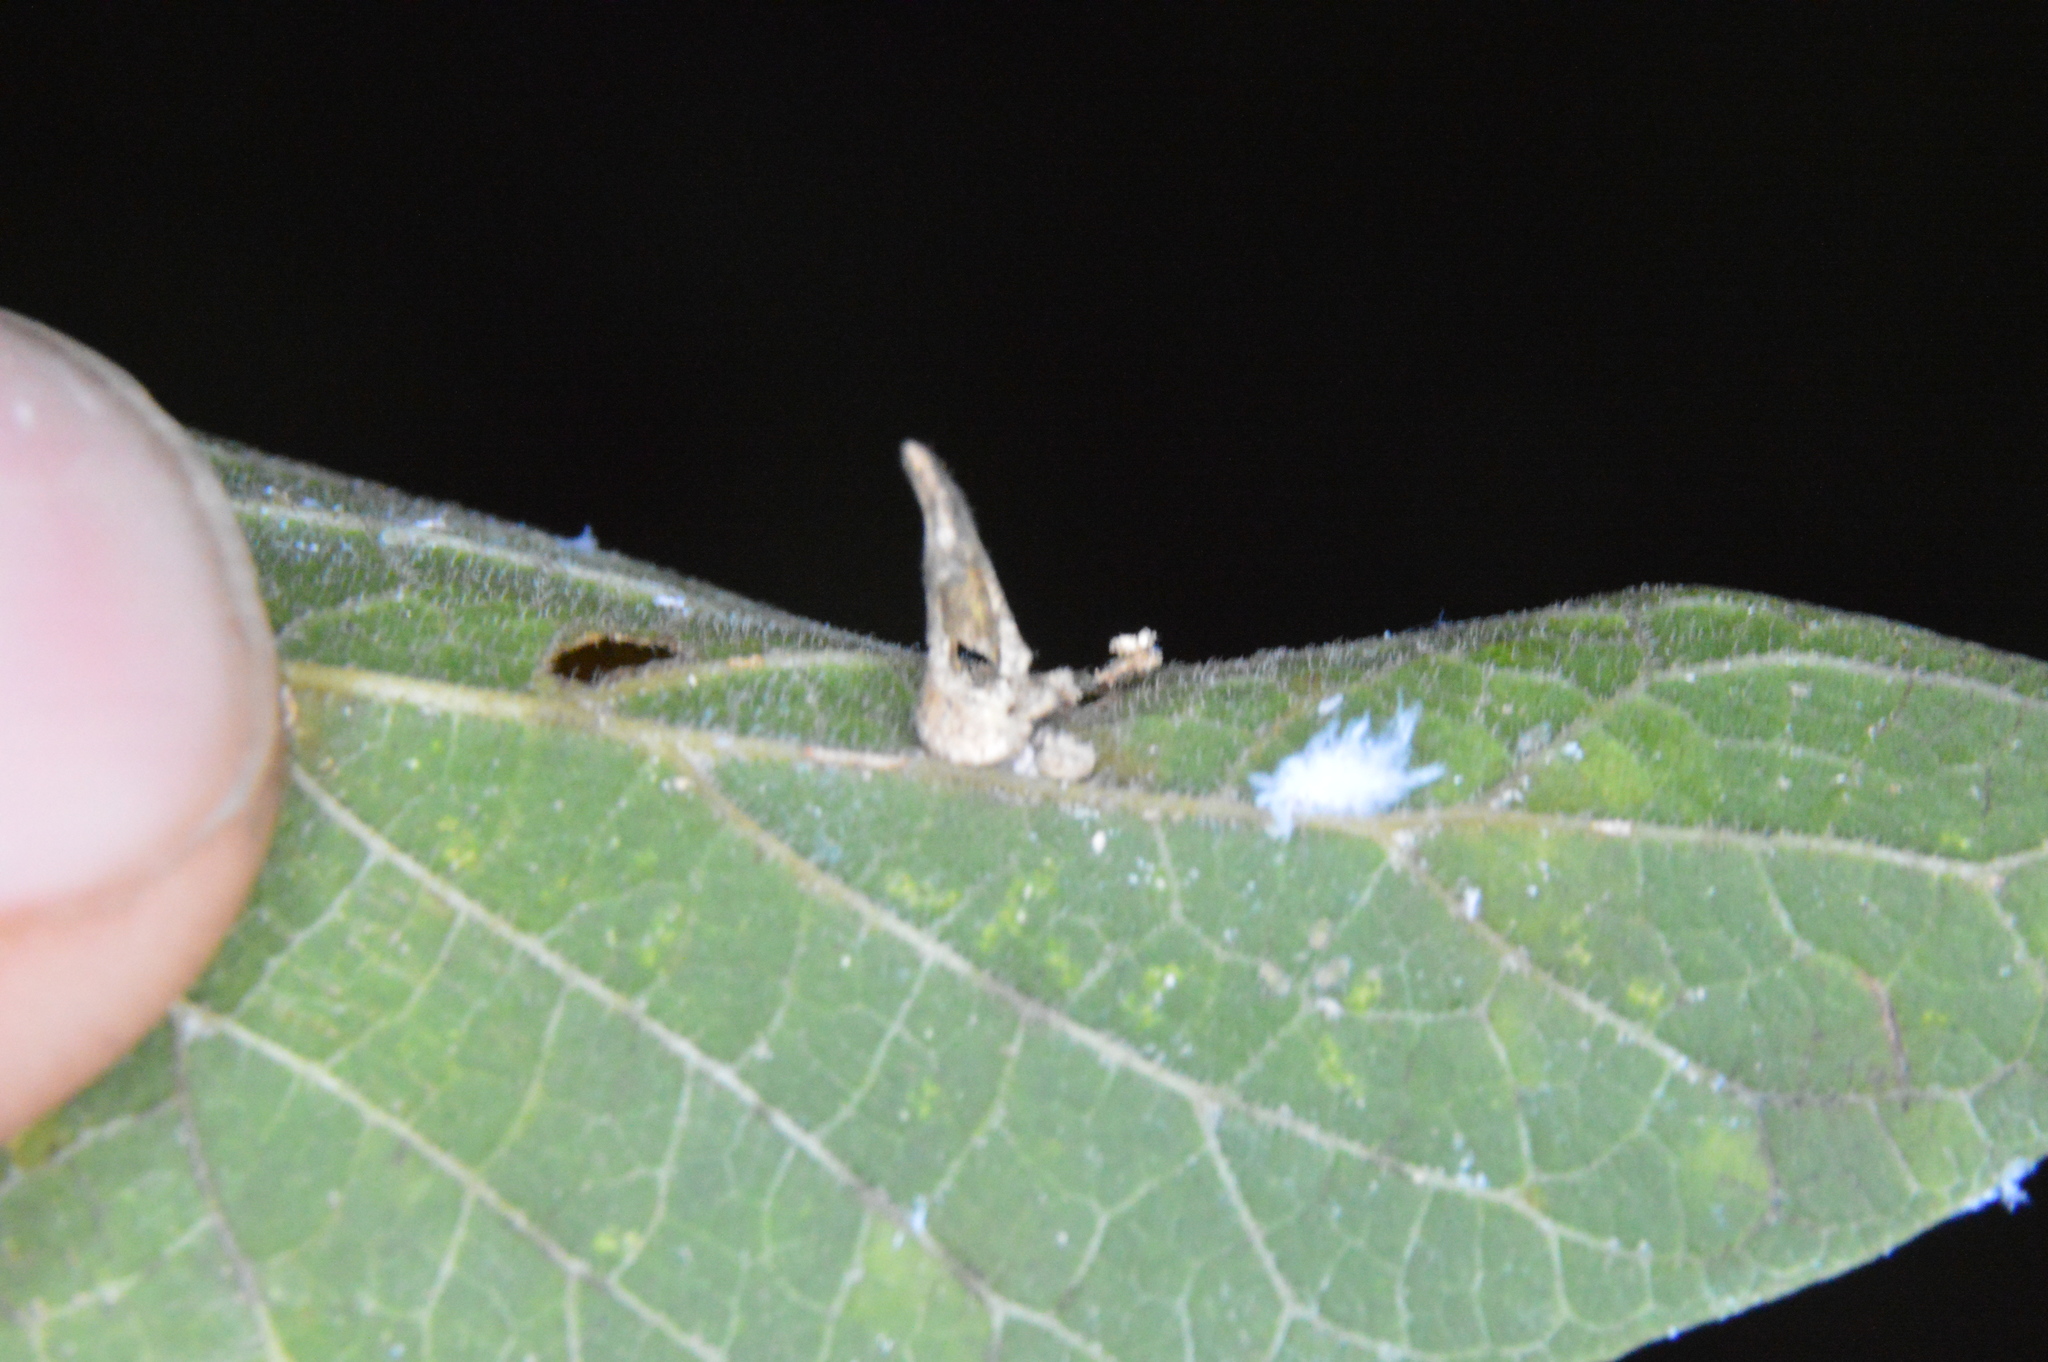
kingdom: Animalia
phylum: Arthropoda
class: Insecta
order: Diptera
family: Cecidomyiidae
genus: Celticecis
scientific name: Celticecis subulata
